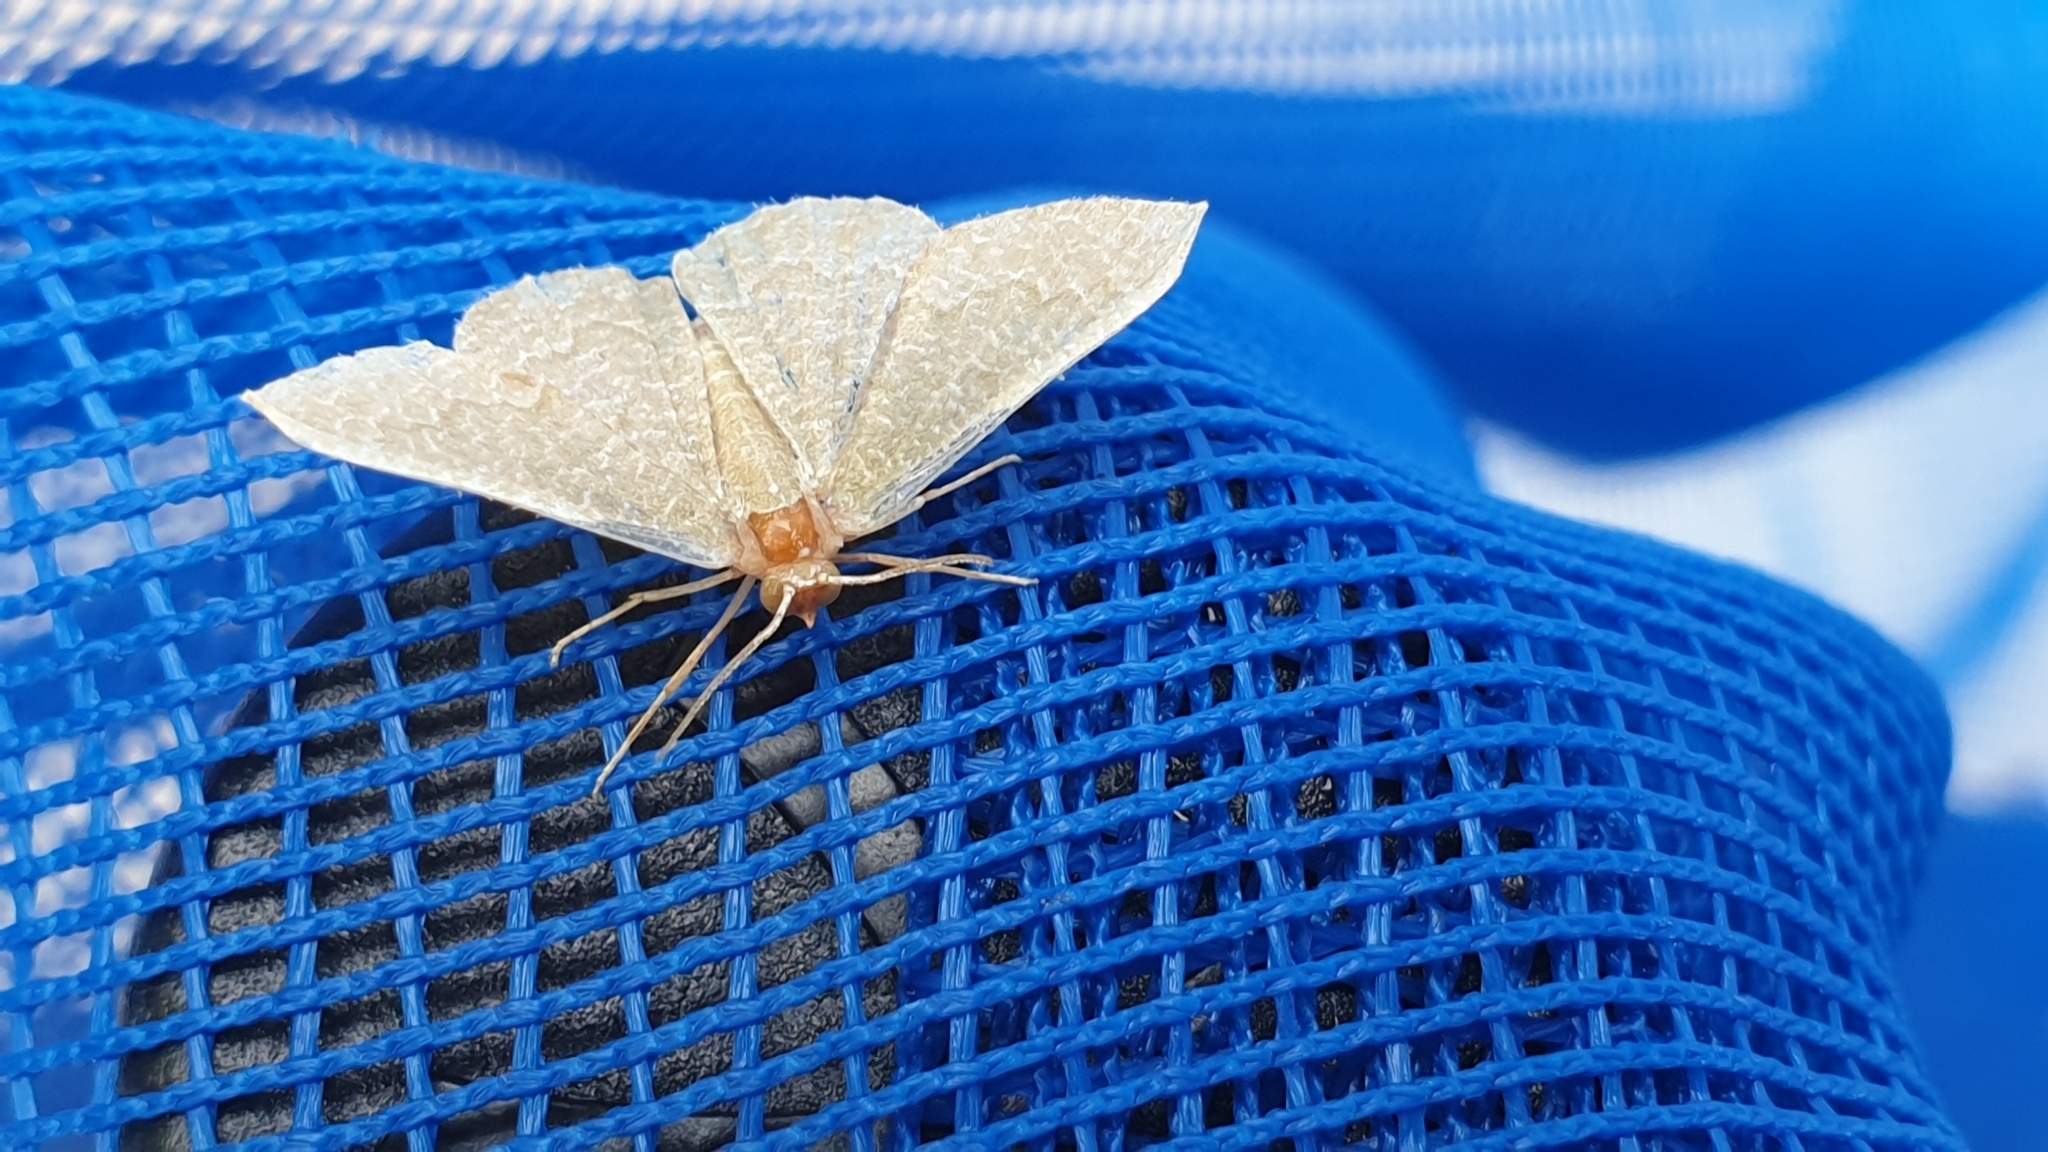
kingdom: Animalia
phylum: Arthropoda
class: Insecta
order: Lepidoptera
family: Geometridae
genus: Chlorissa
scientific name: Chlorissa etruscaria
